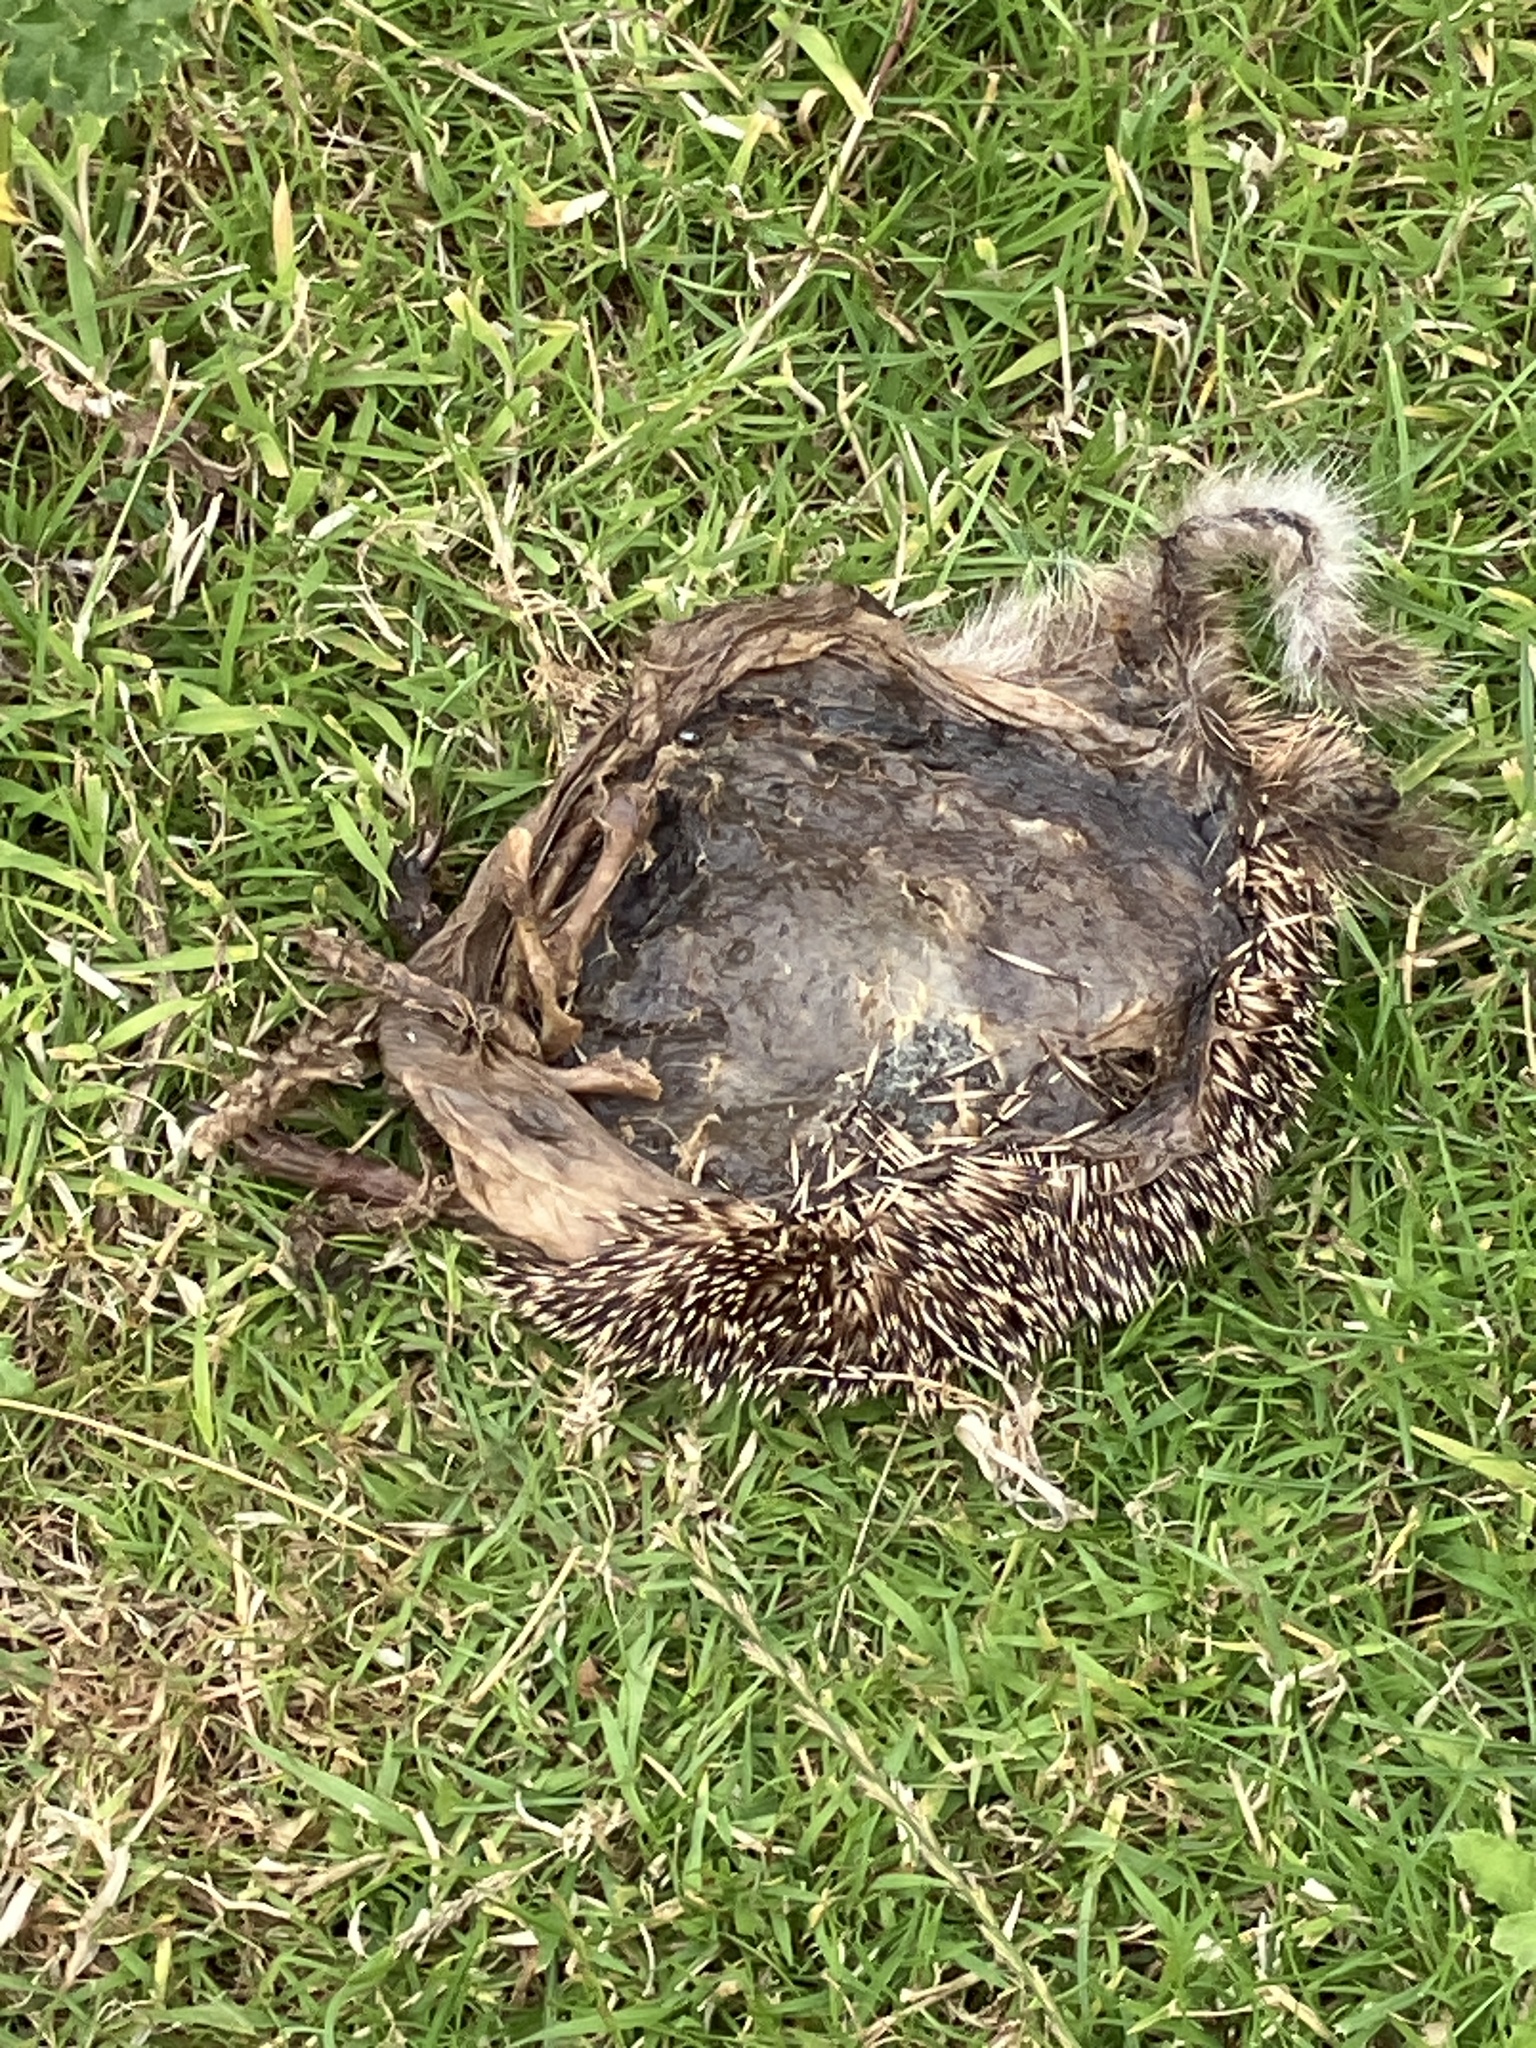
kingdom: Animalia
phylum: Chordata
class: Mammalia
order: Erinaceomorpha
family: Erinaceidae
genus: Erinaceus
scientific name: Erinaceus europaeus
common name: West european hedgehog
